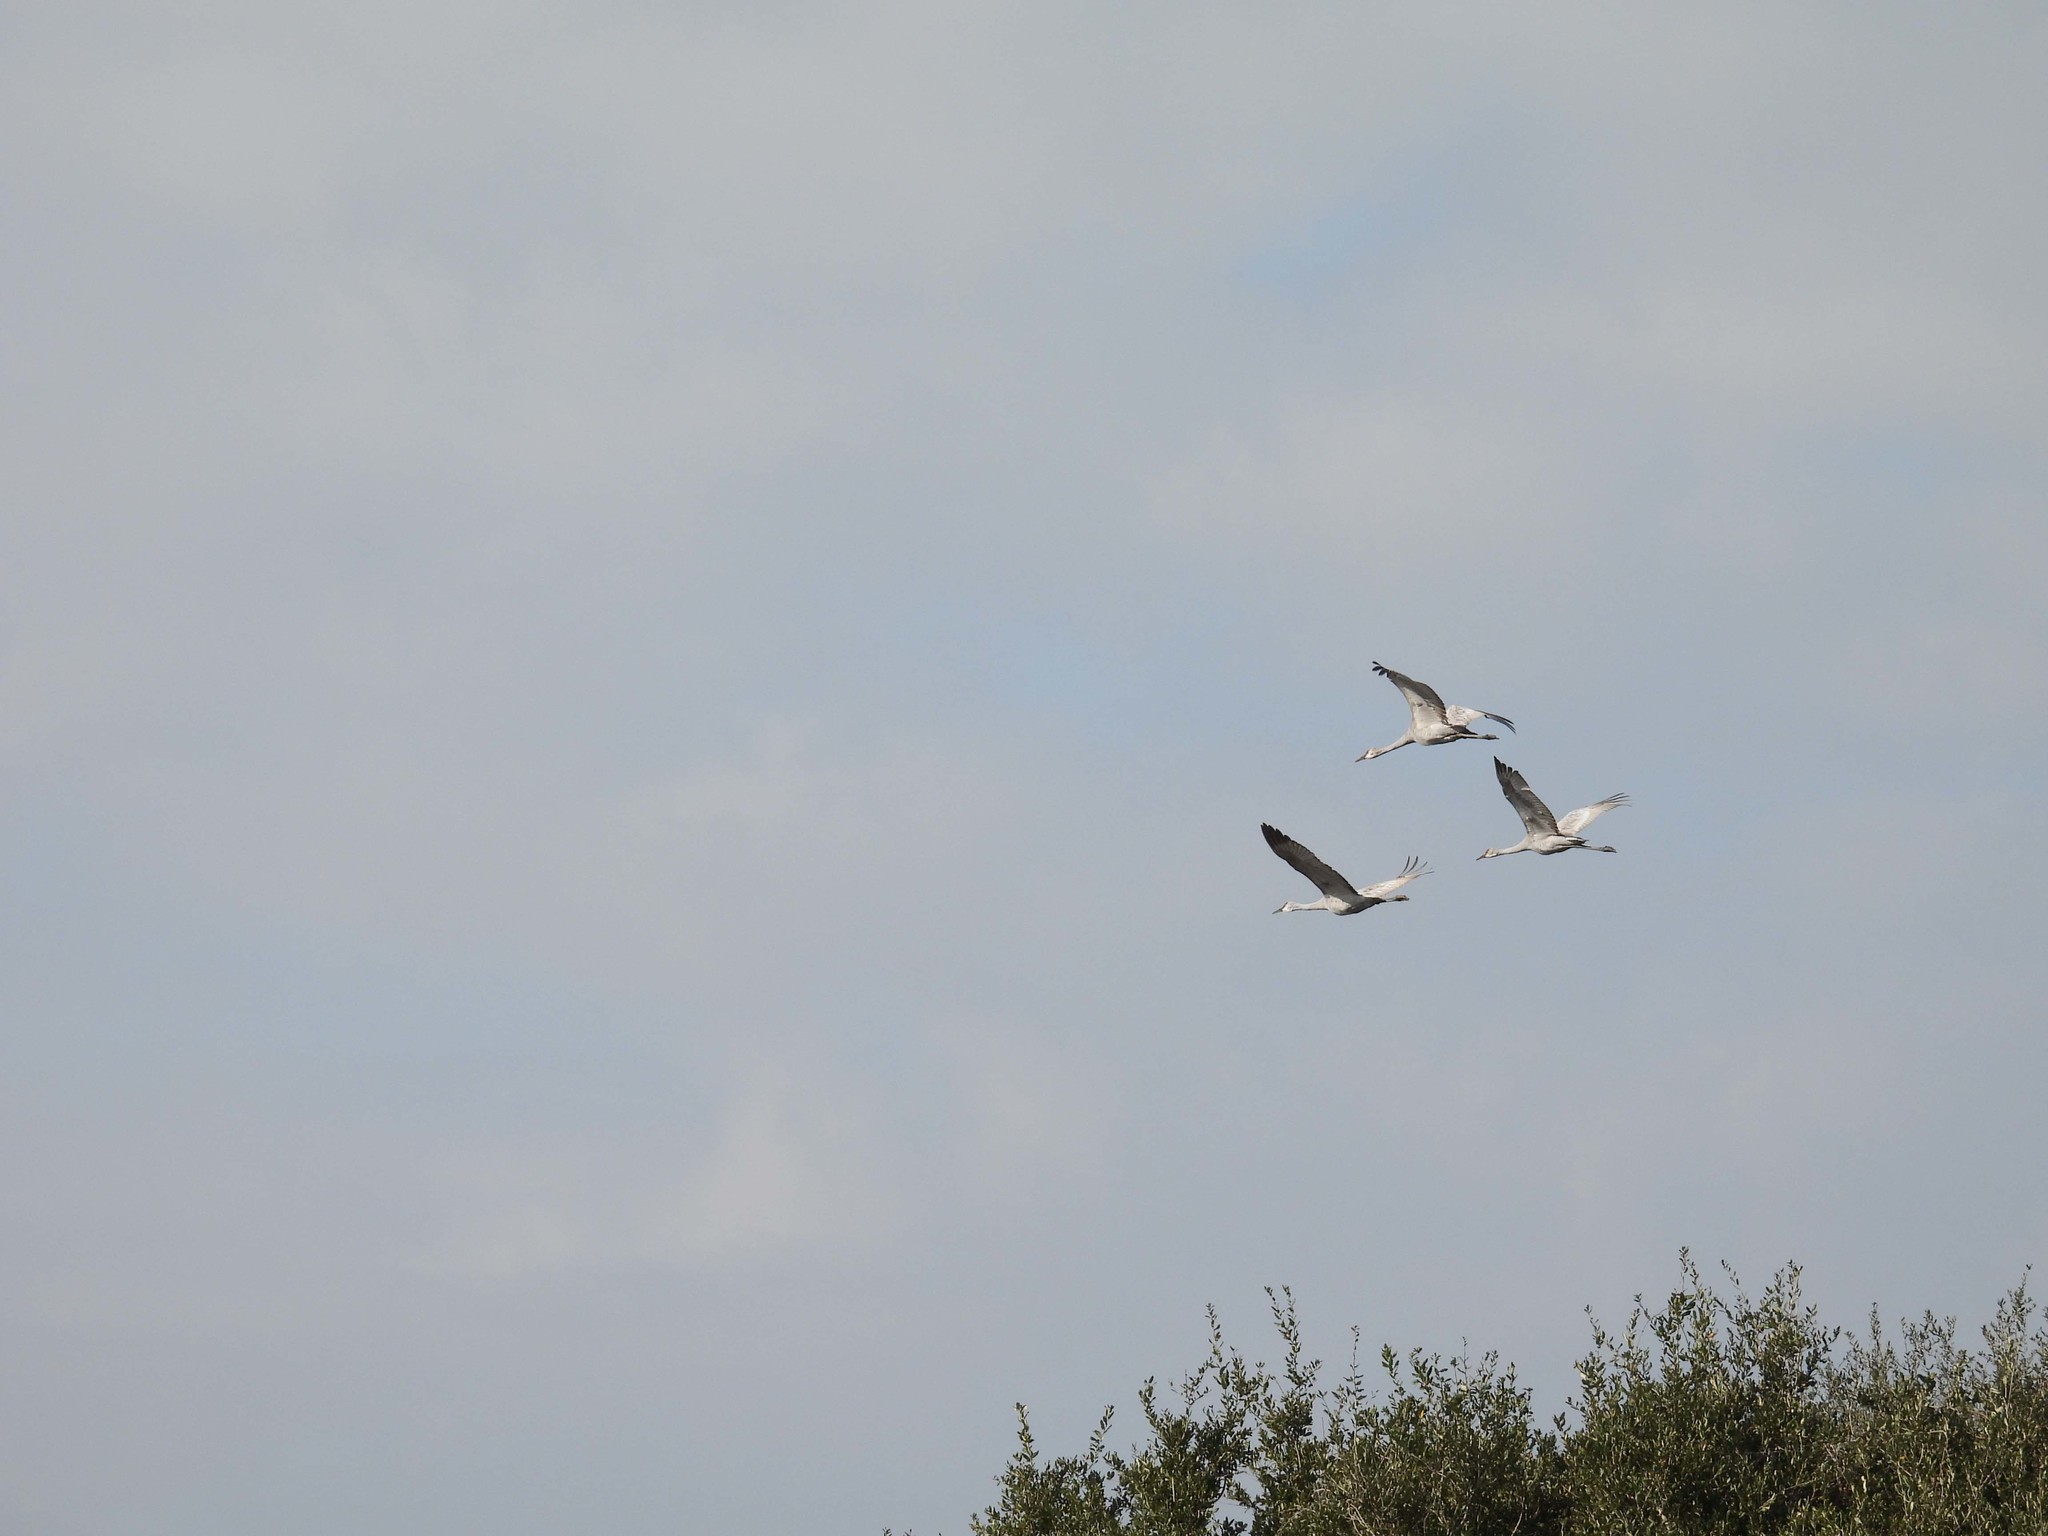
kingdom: Animalia
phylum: Chordata
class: Aves
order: Gruiformes
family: Gruidae
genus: Grus
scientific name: Grus canadensis
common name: Sandhill crane
